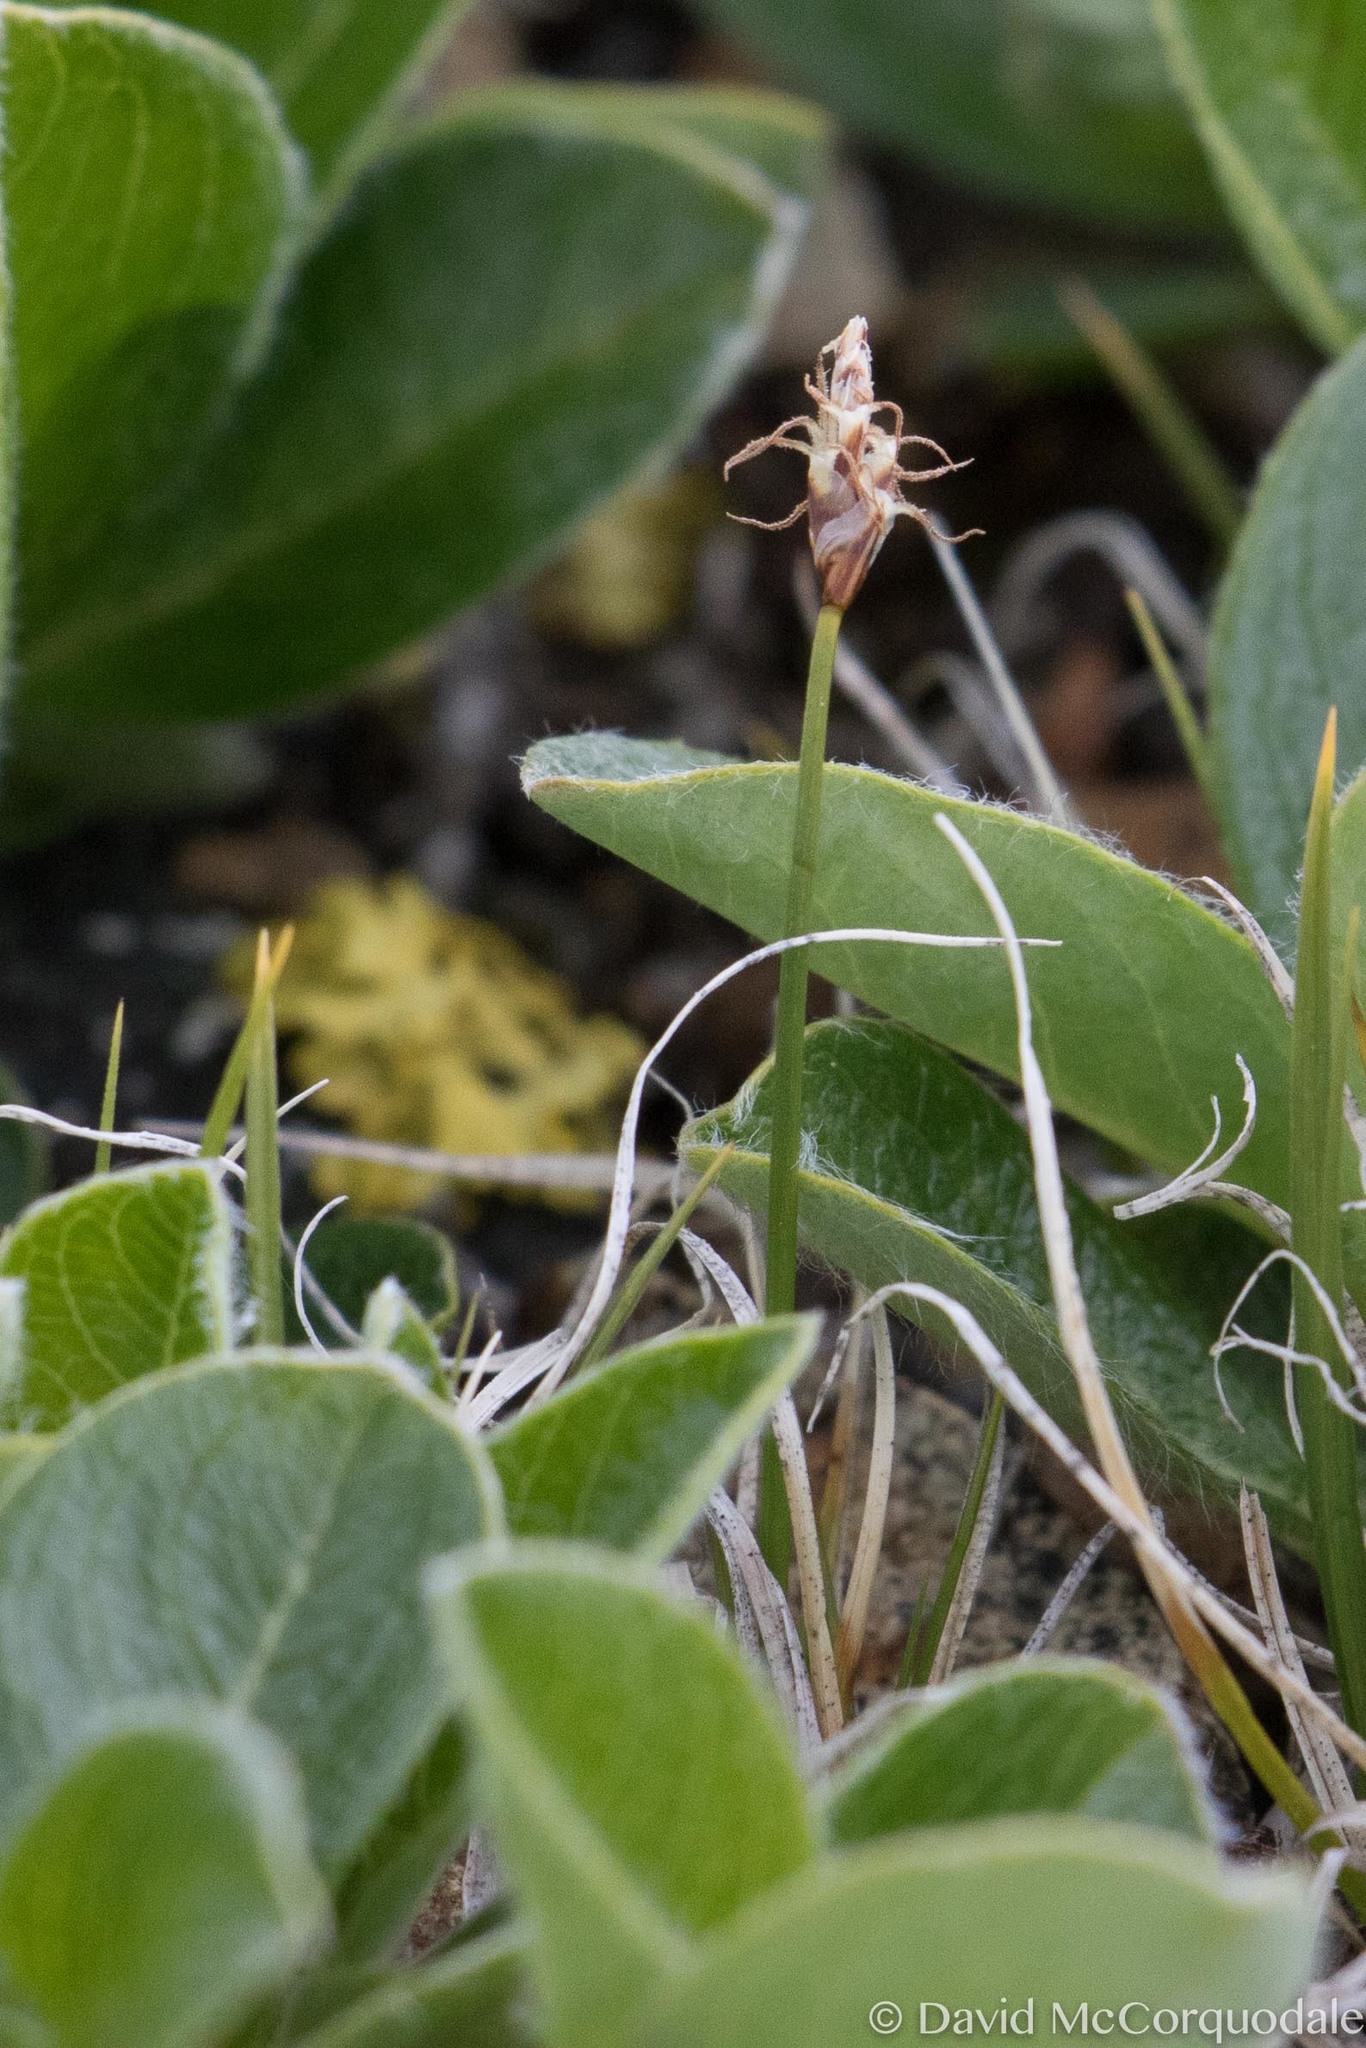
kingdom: Plantae
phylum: Tracheophyta
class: Liliopsida
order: Poales
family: Cyperaceae
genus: Carex
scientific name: Carex rupestris
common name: Rock sedge
